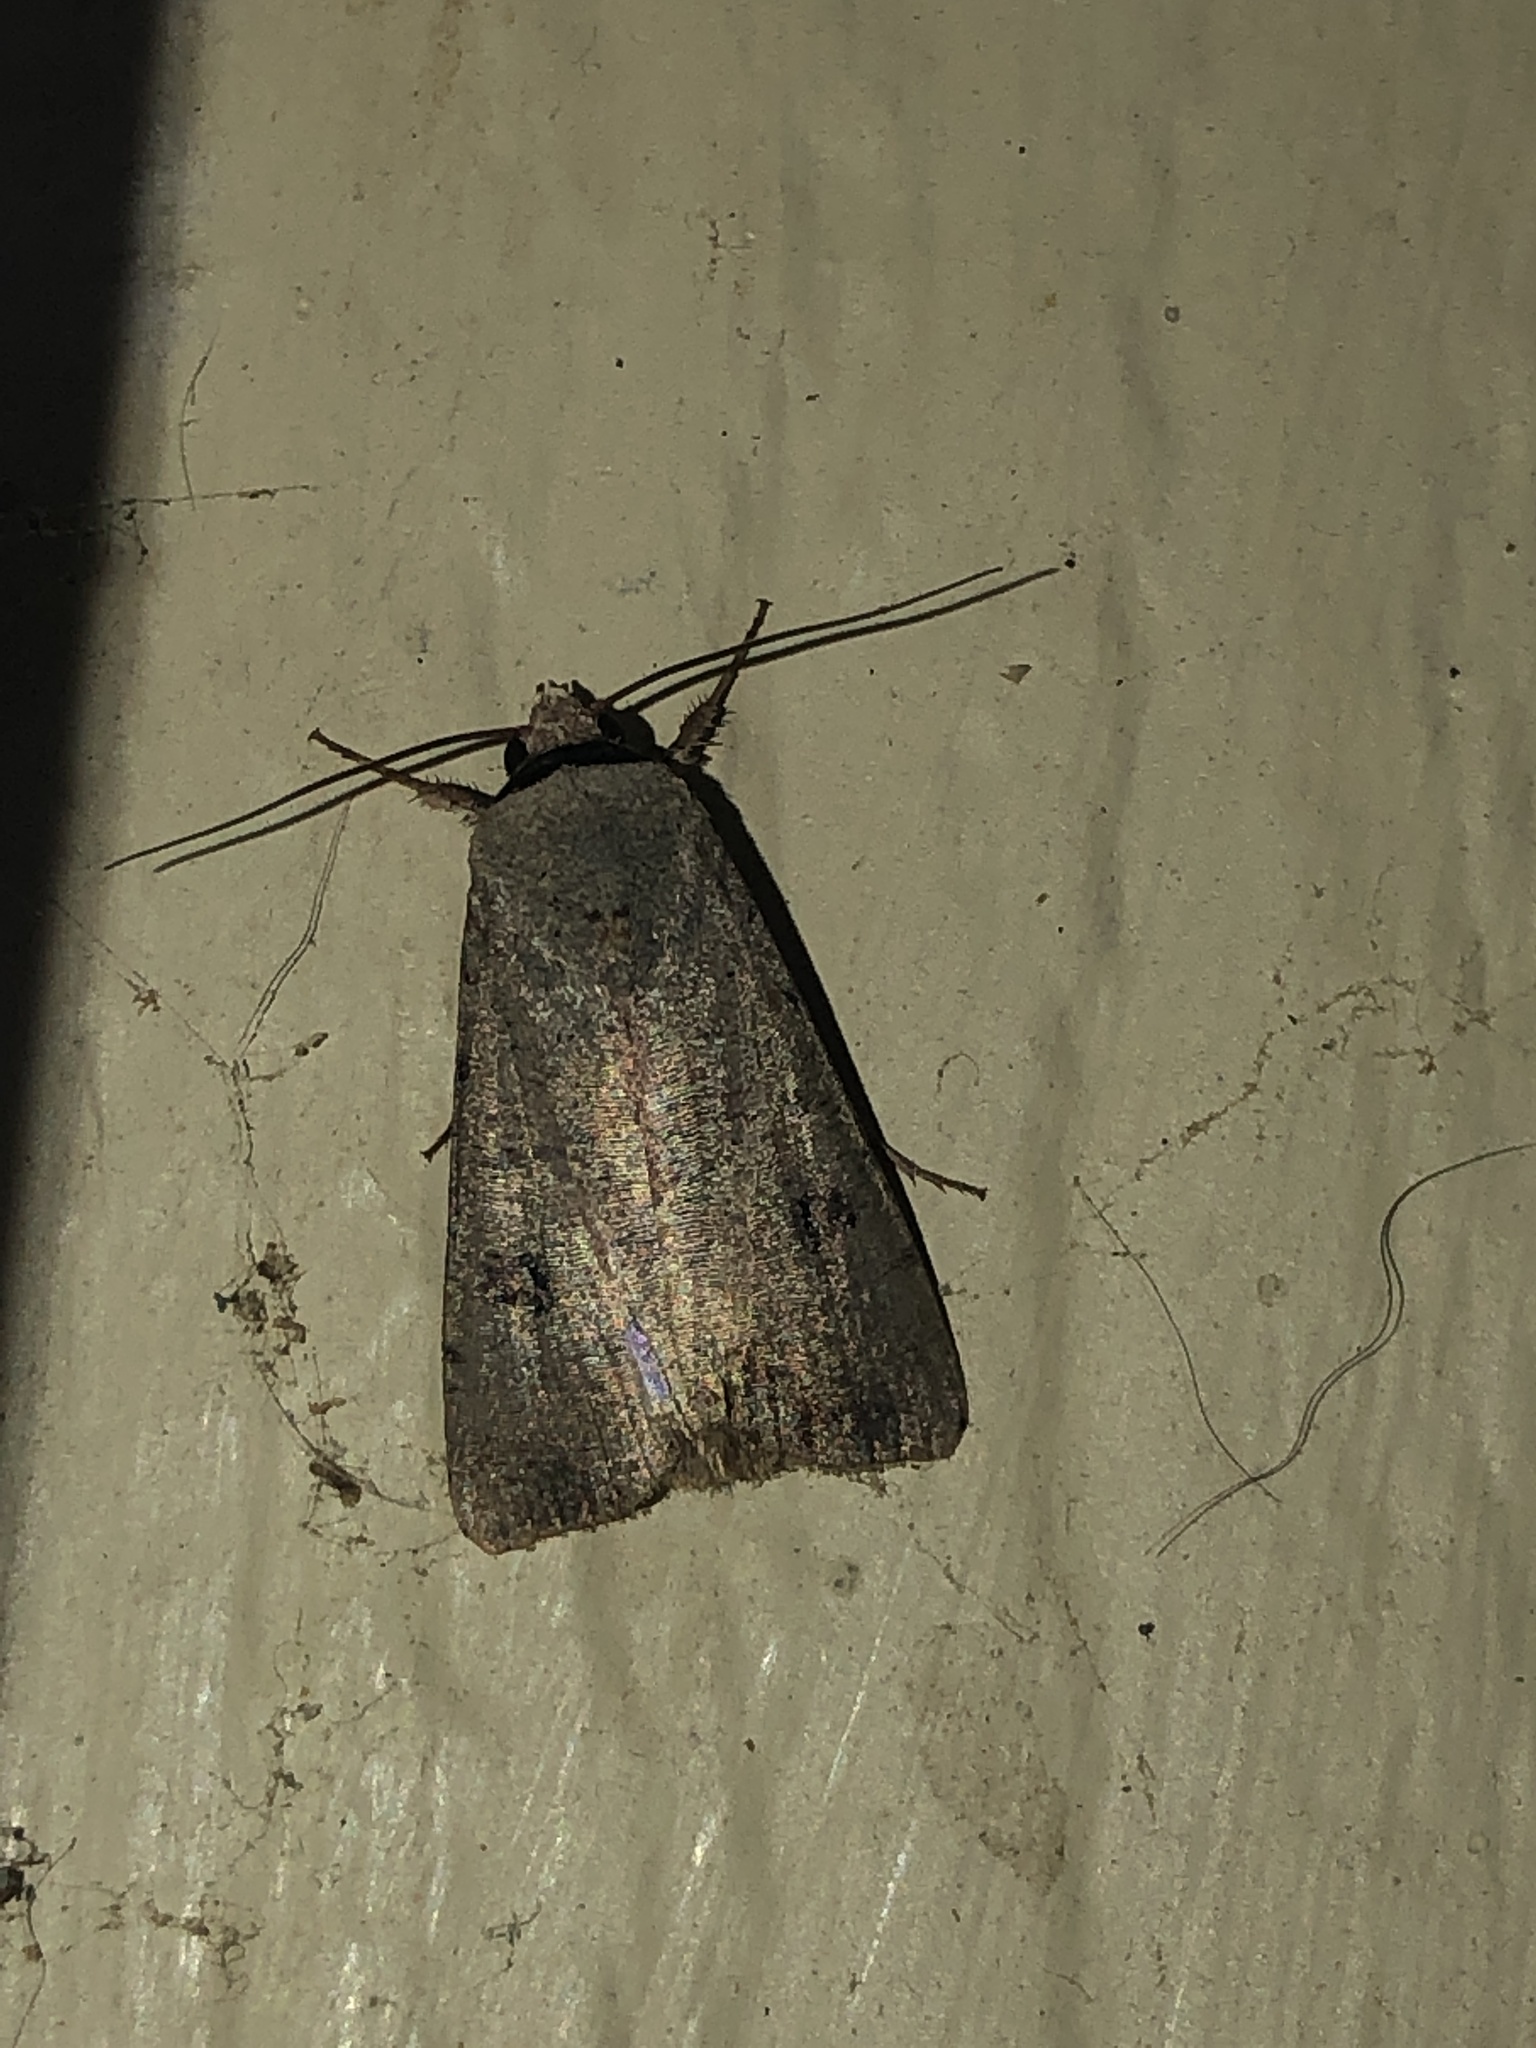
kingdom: Animalia
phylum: Arthropoda
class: Insecta
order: Lepidoptera
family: Noctuidae
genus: Anicla
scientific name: Anicla infecta
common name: Green cutworm
